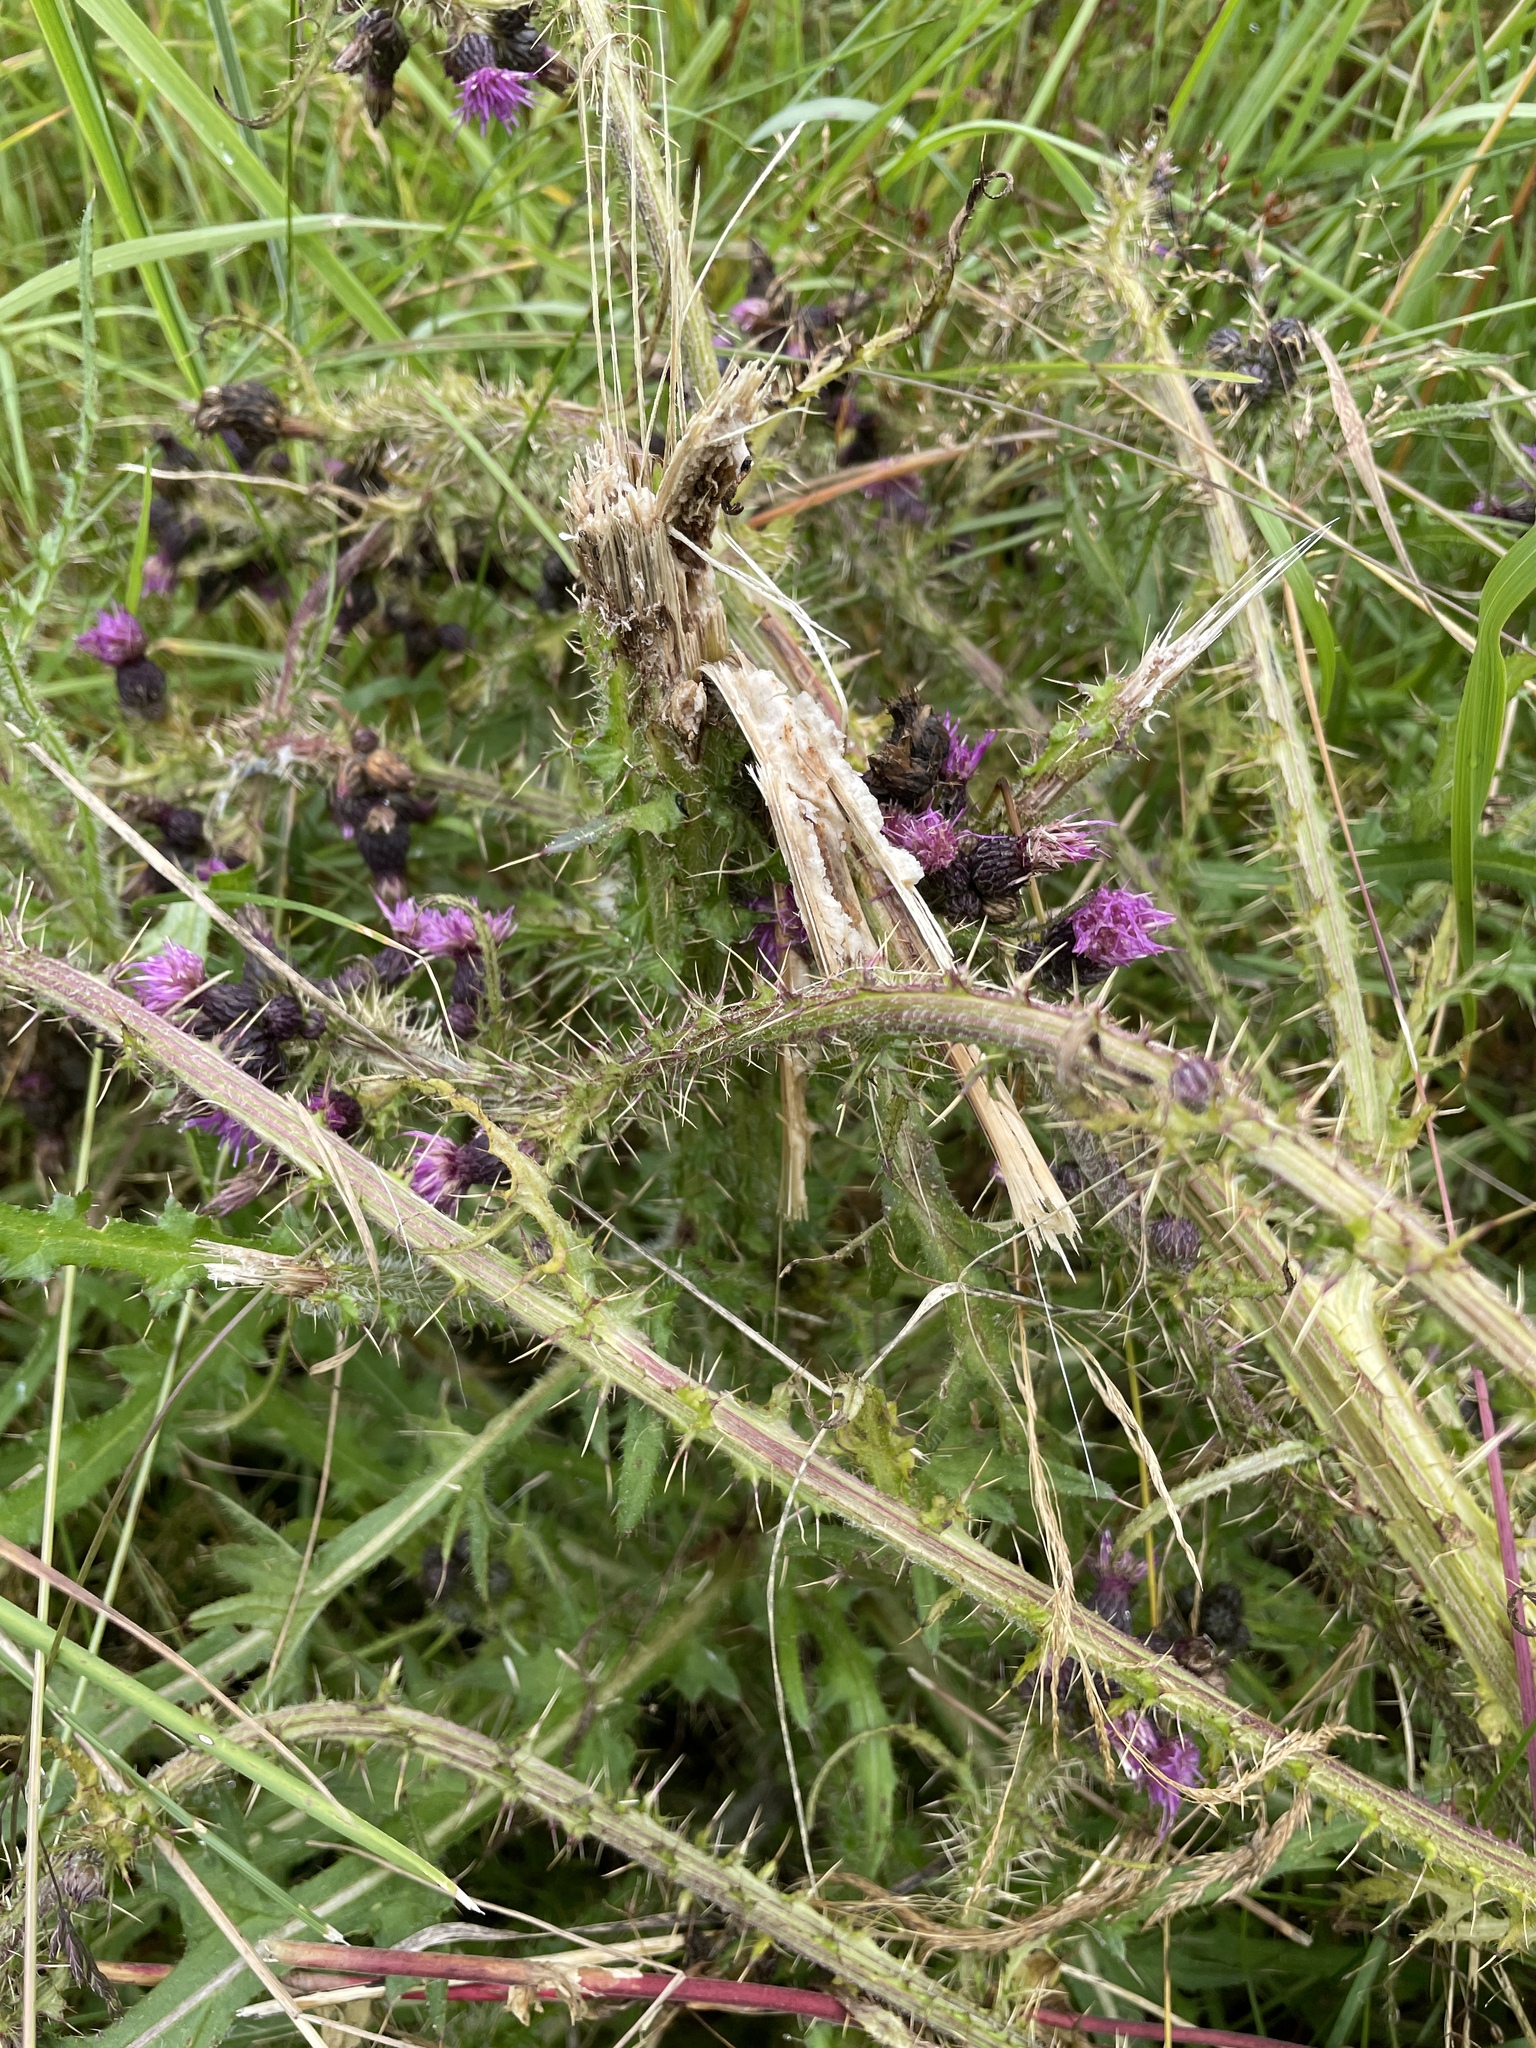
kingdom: Plantae
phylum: Tracheophyta
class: Magnoliopsida
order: Asterales
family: Asteraceae
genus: Cirsium
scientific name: Cirsium palustre
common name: Marsh thistle
